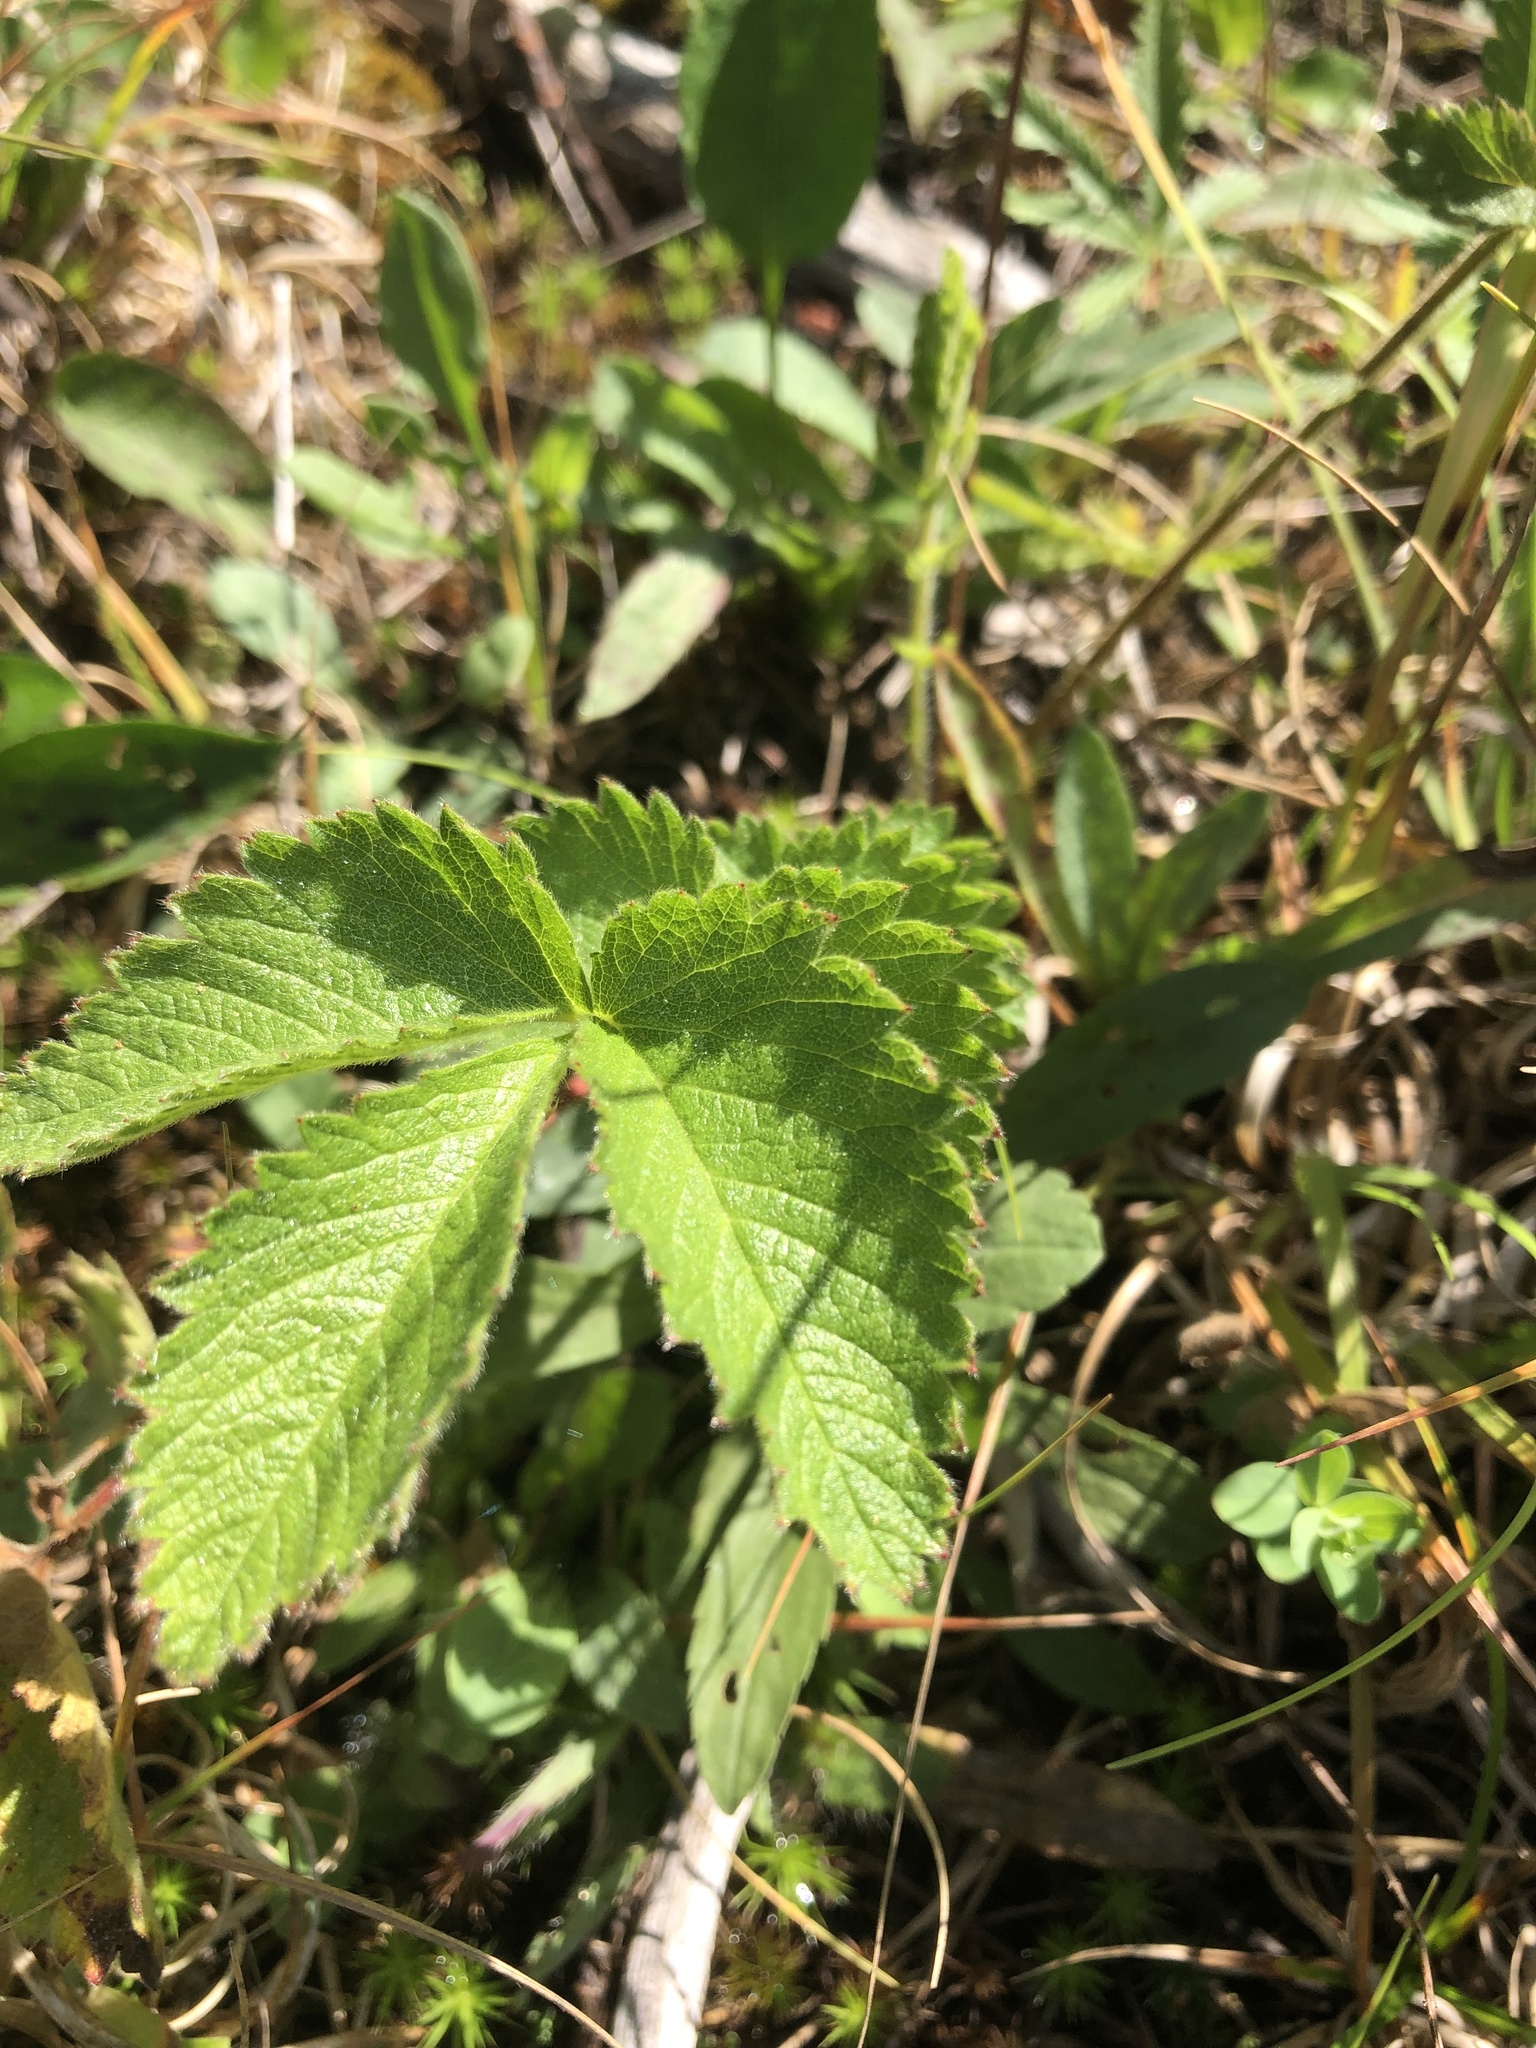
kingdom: Plantae
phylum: Tracheophyta
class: Magnoliopsida
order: Rosales
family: Rosaceae
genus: Drymocallis
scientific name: Drymocallis arguta
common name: Tall cinquefoil
